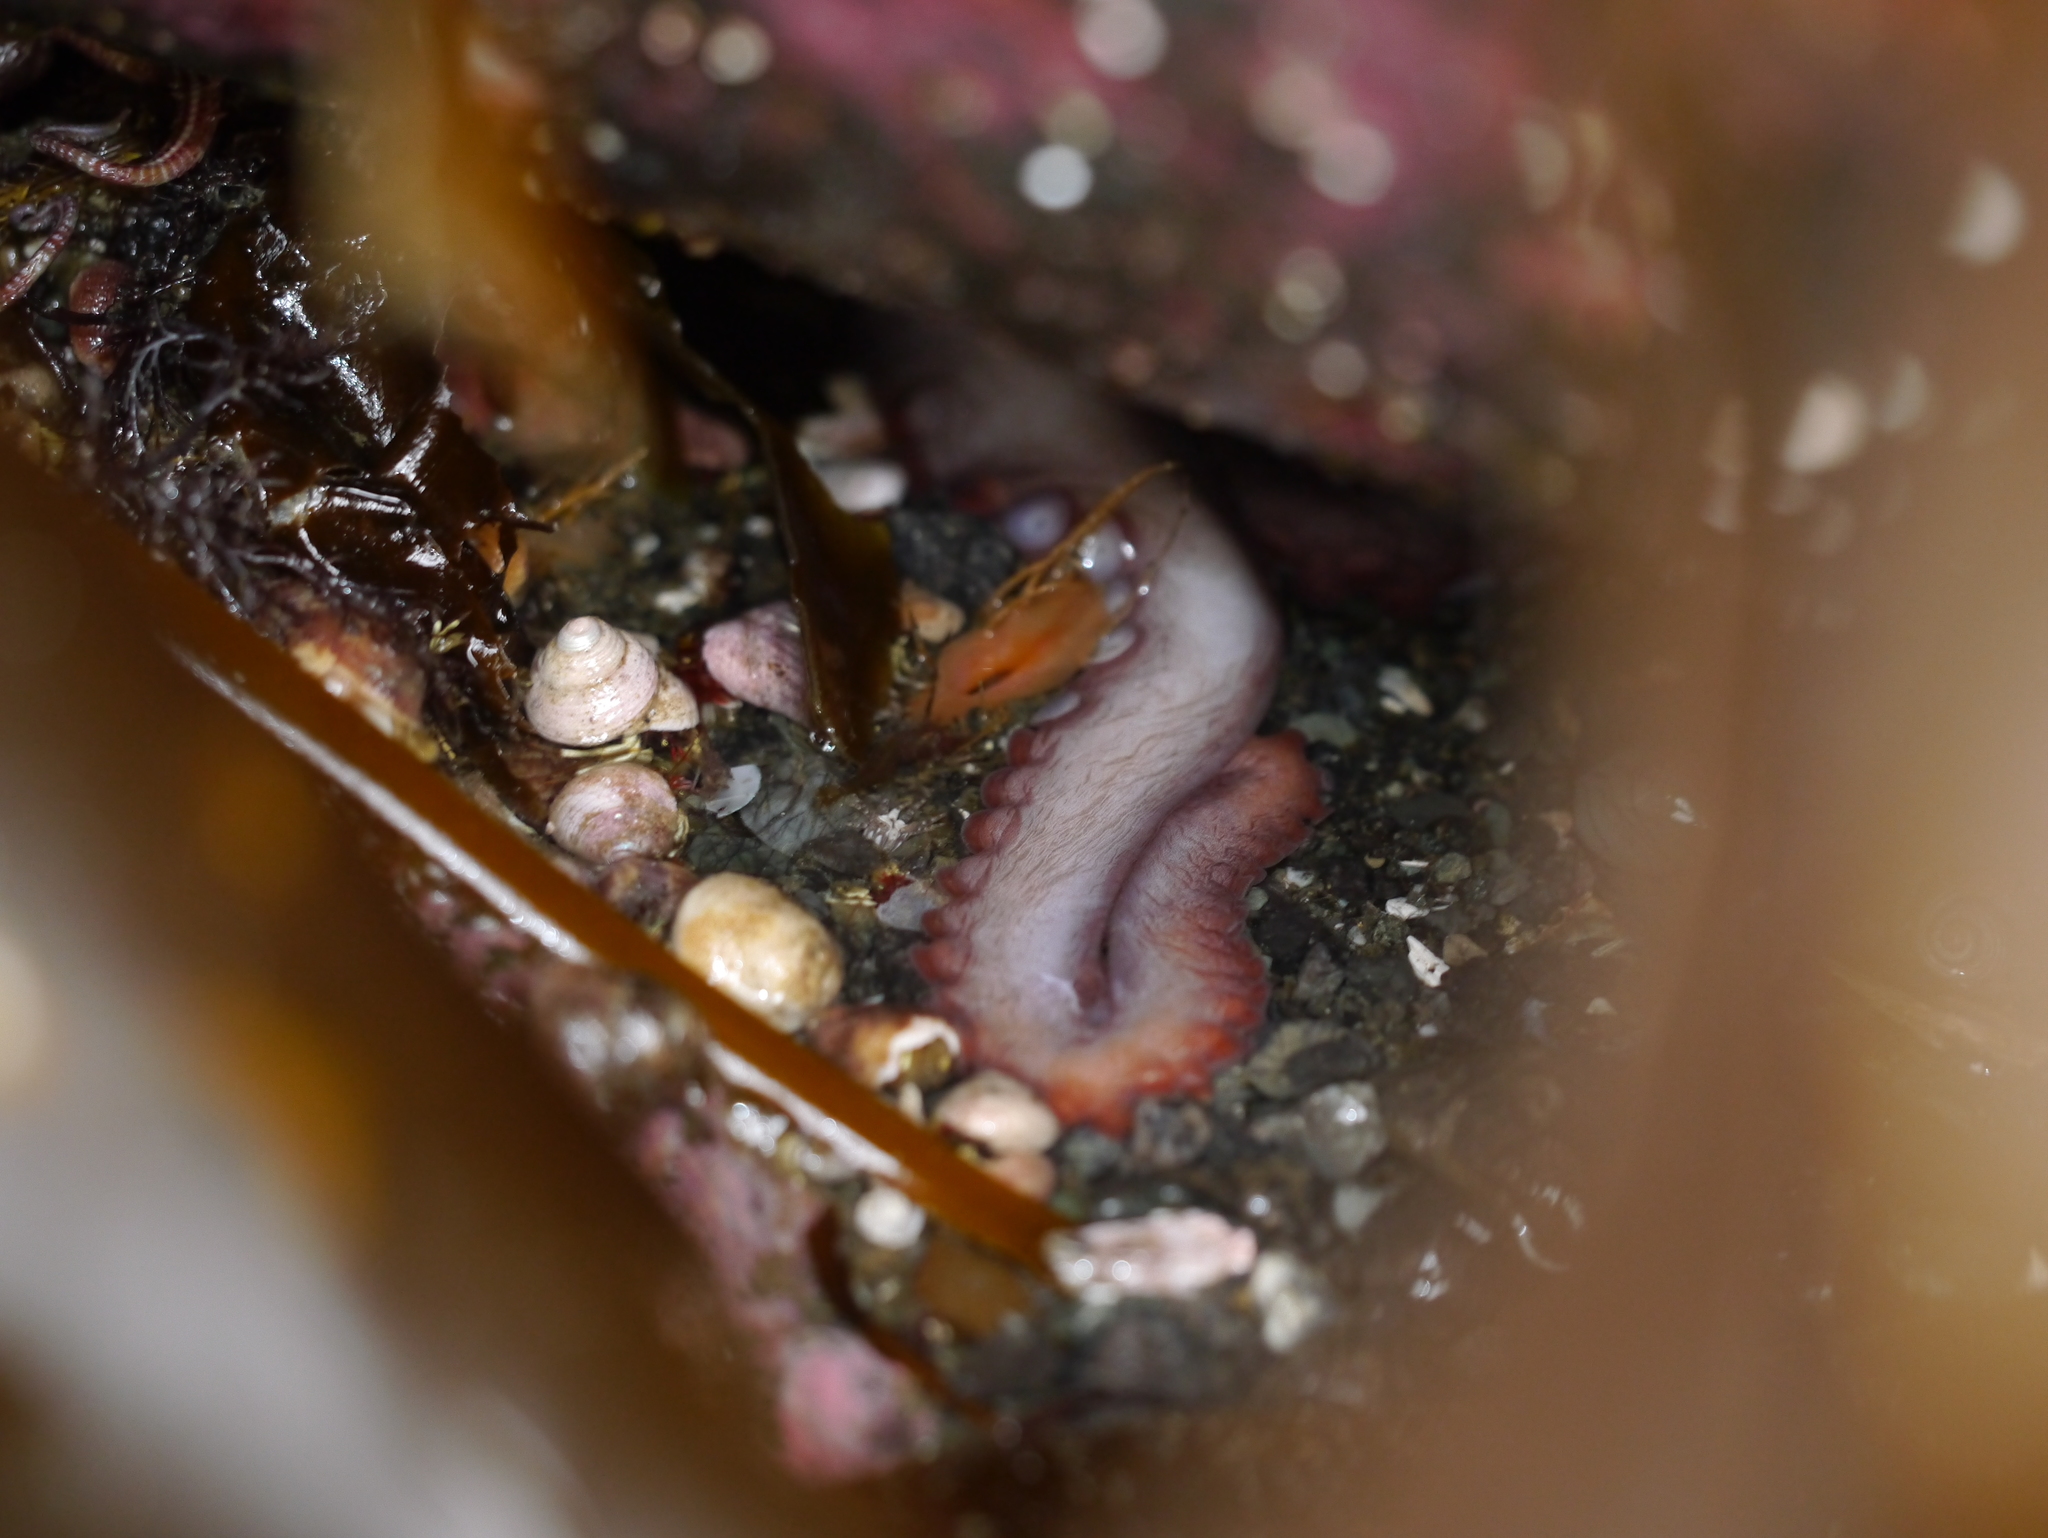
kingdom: Animalia
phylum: Mollusca
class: Cephalopoda
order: Octopoda
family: Enteroctopodidae
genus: Enteroctopus
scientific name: Enteroctopus dofleini
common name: Giant north pacific octopus
